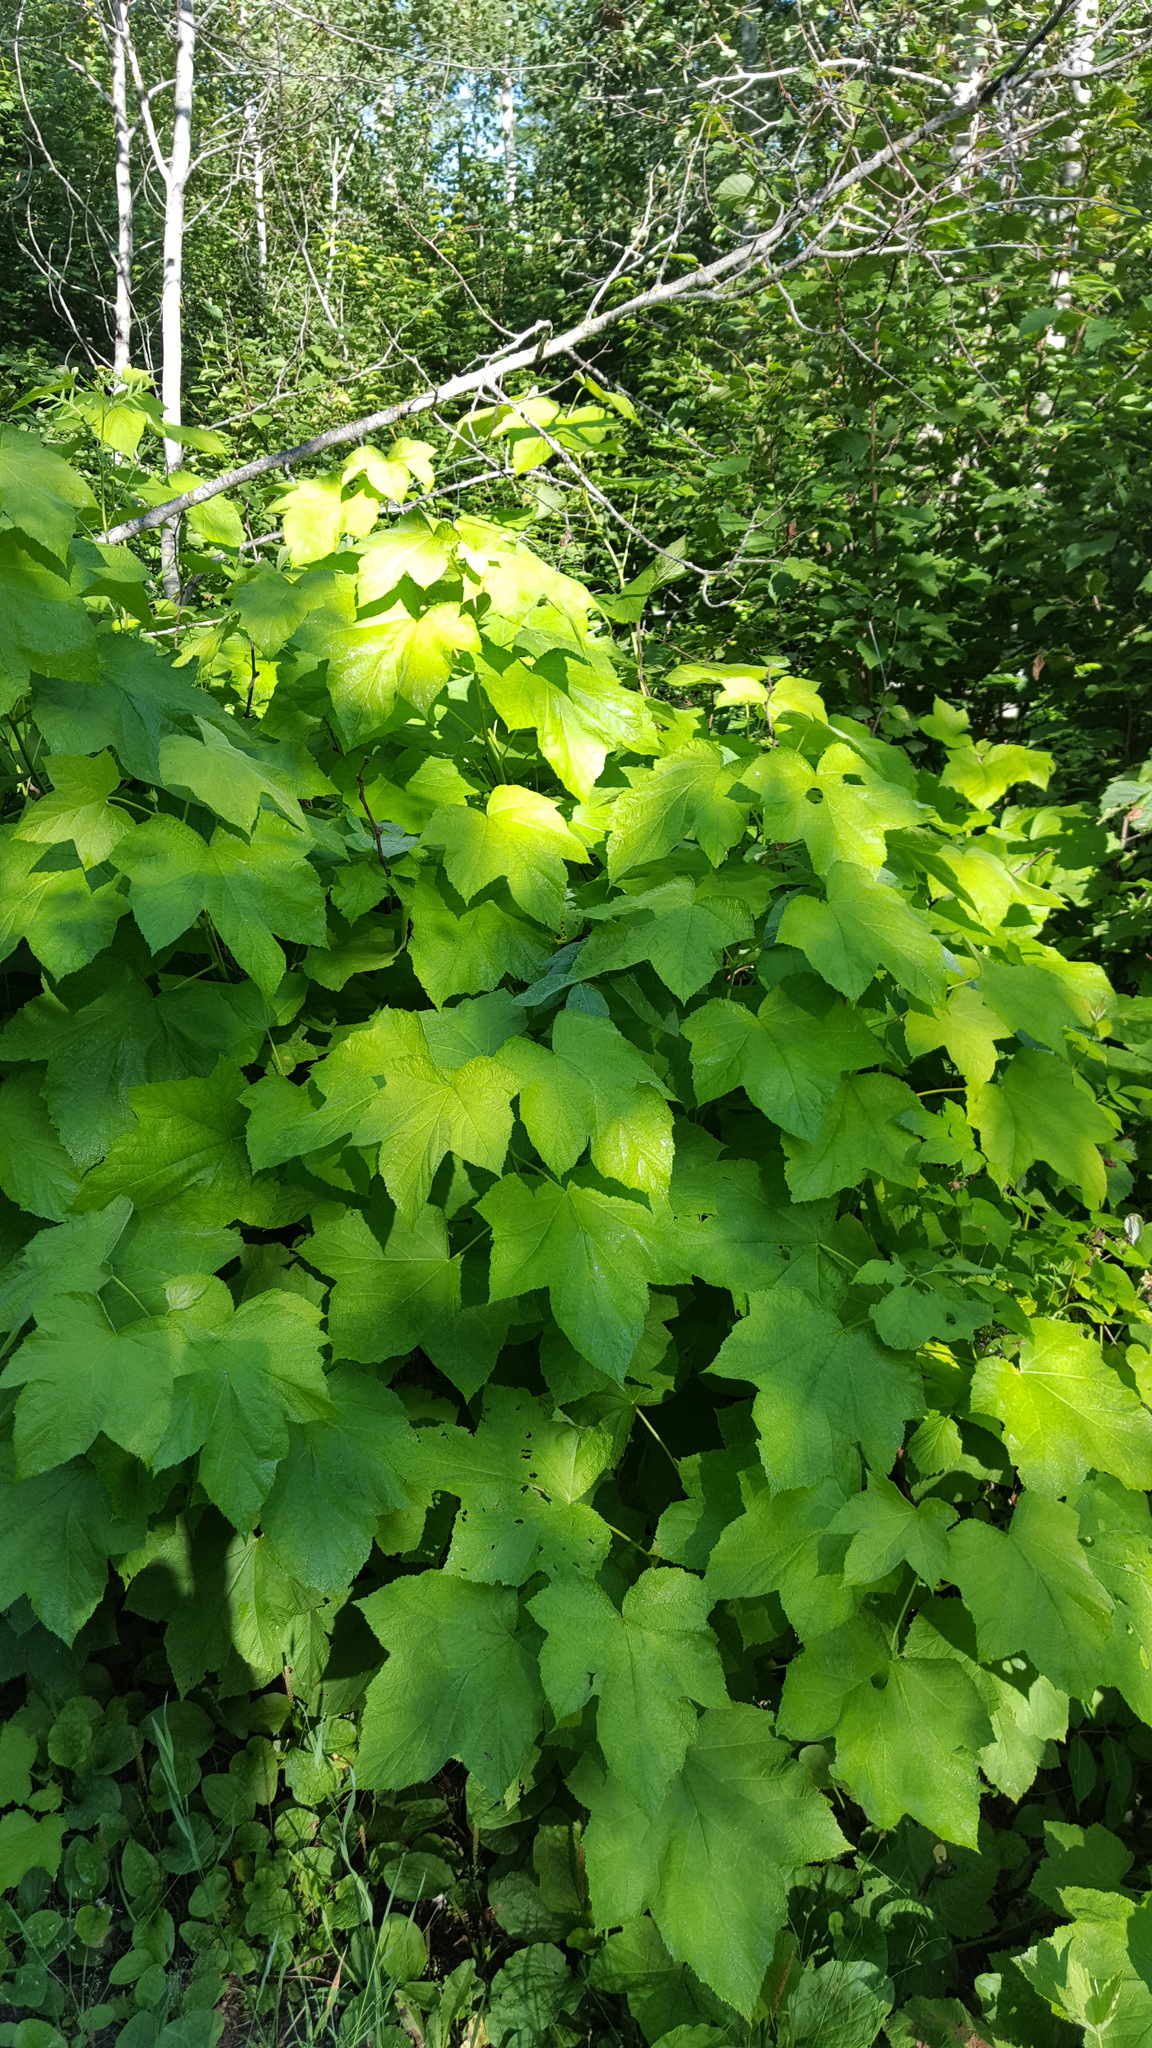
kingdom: Plantae
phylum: Tracheophyta
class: Magnoliopsida
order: Rosales
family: Rosaceae
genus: Rubus
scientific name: Rubus parviflorus
